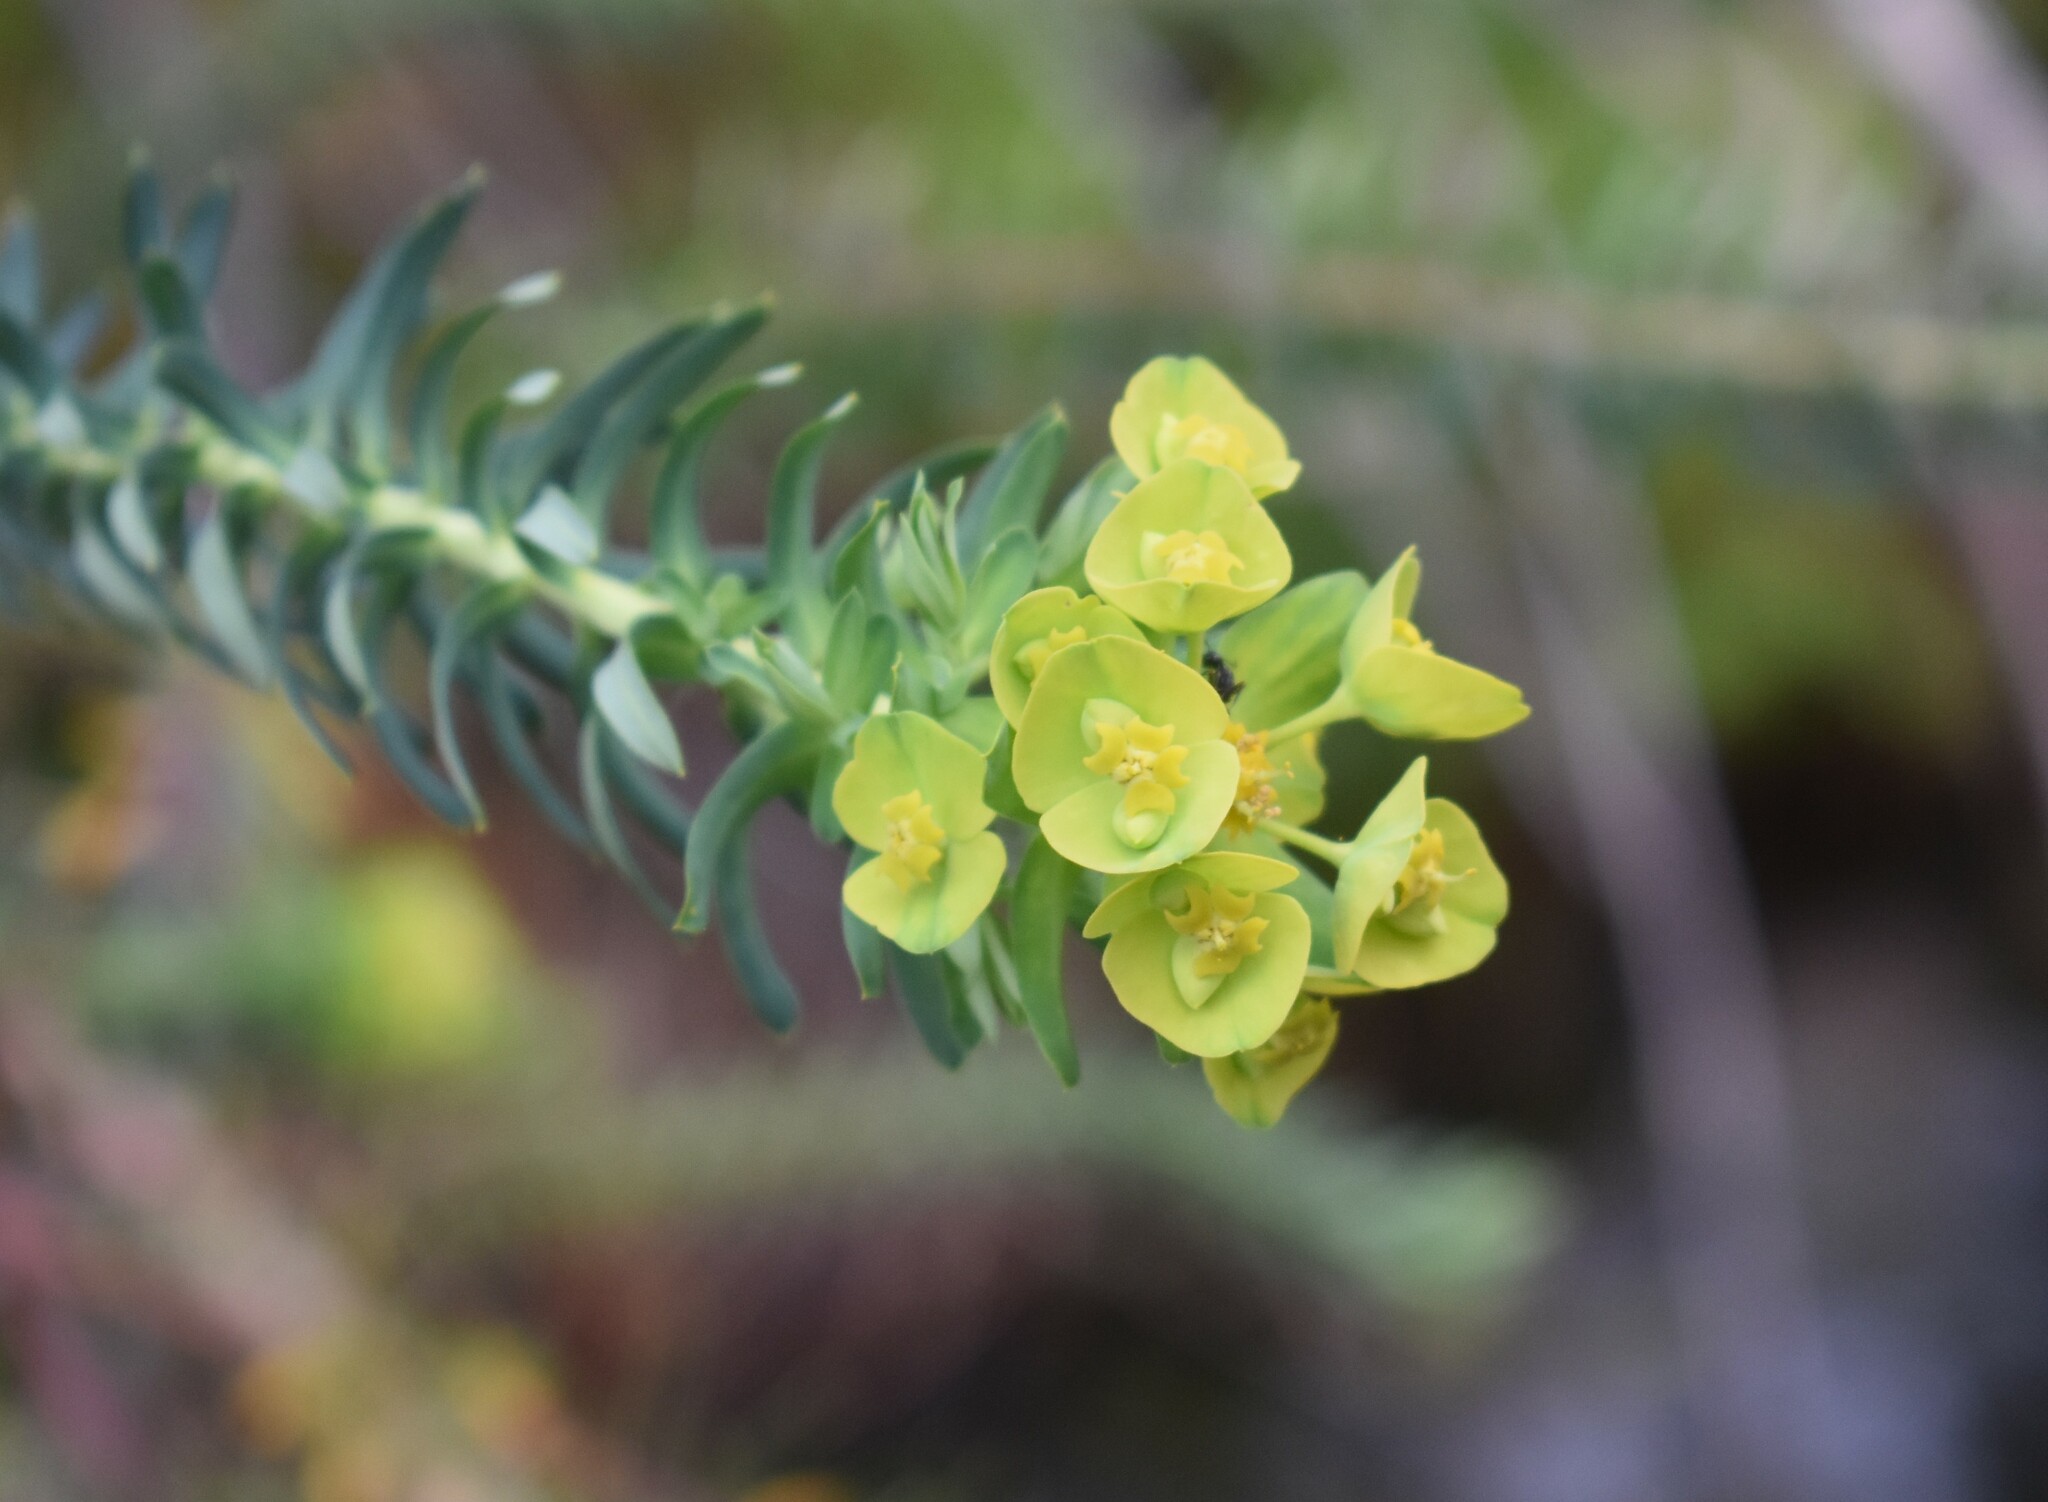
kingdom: Plantae
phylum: Tracheophyta
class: Magnoliopsida
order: Malpighiales
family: Euphorbiaceae
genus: Euphorbia
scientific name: Euphorbia natalensis
